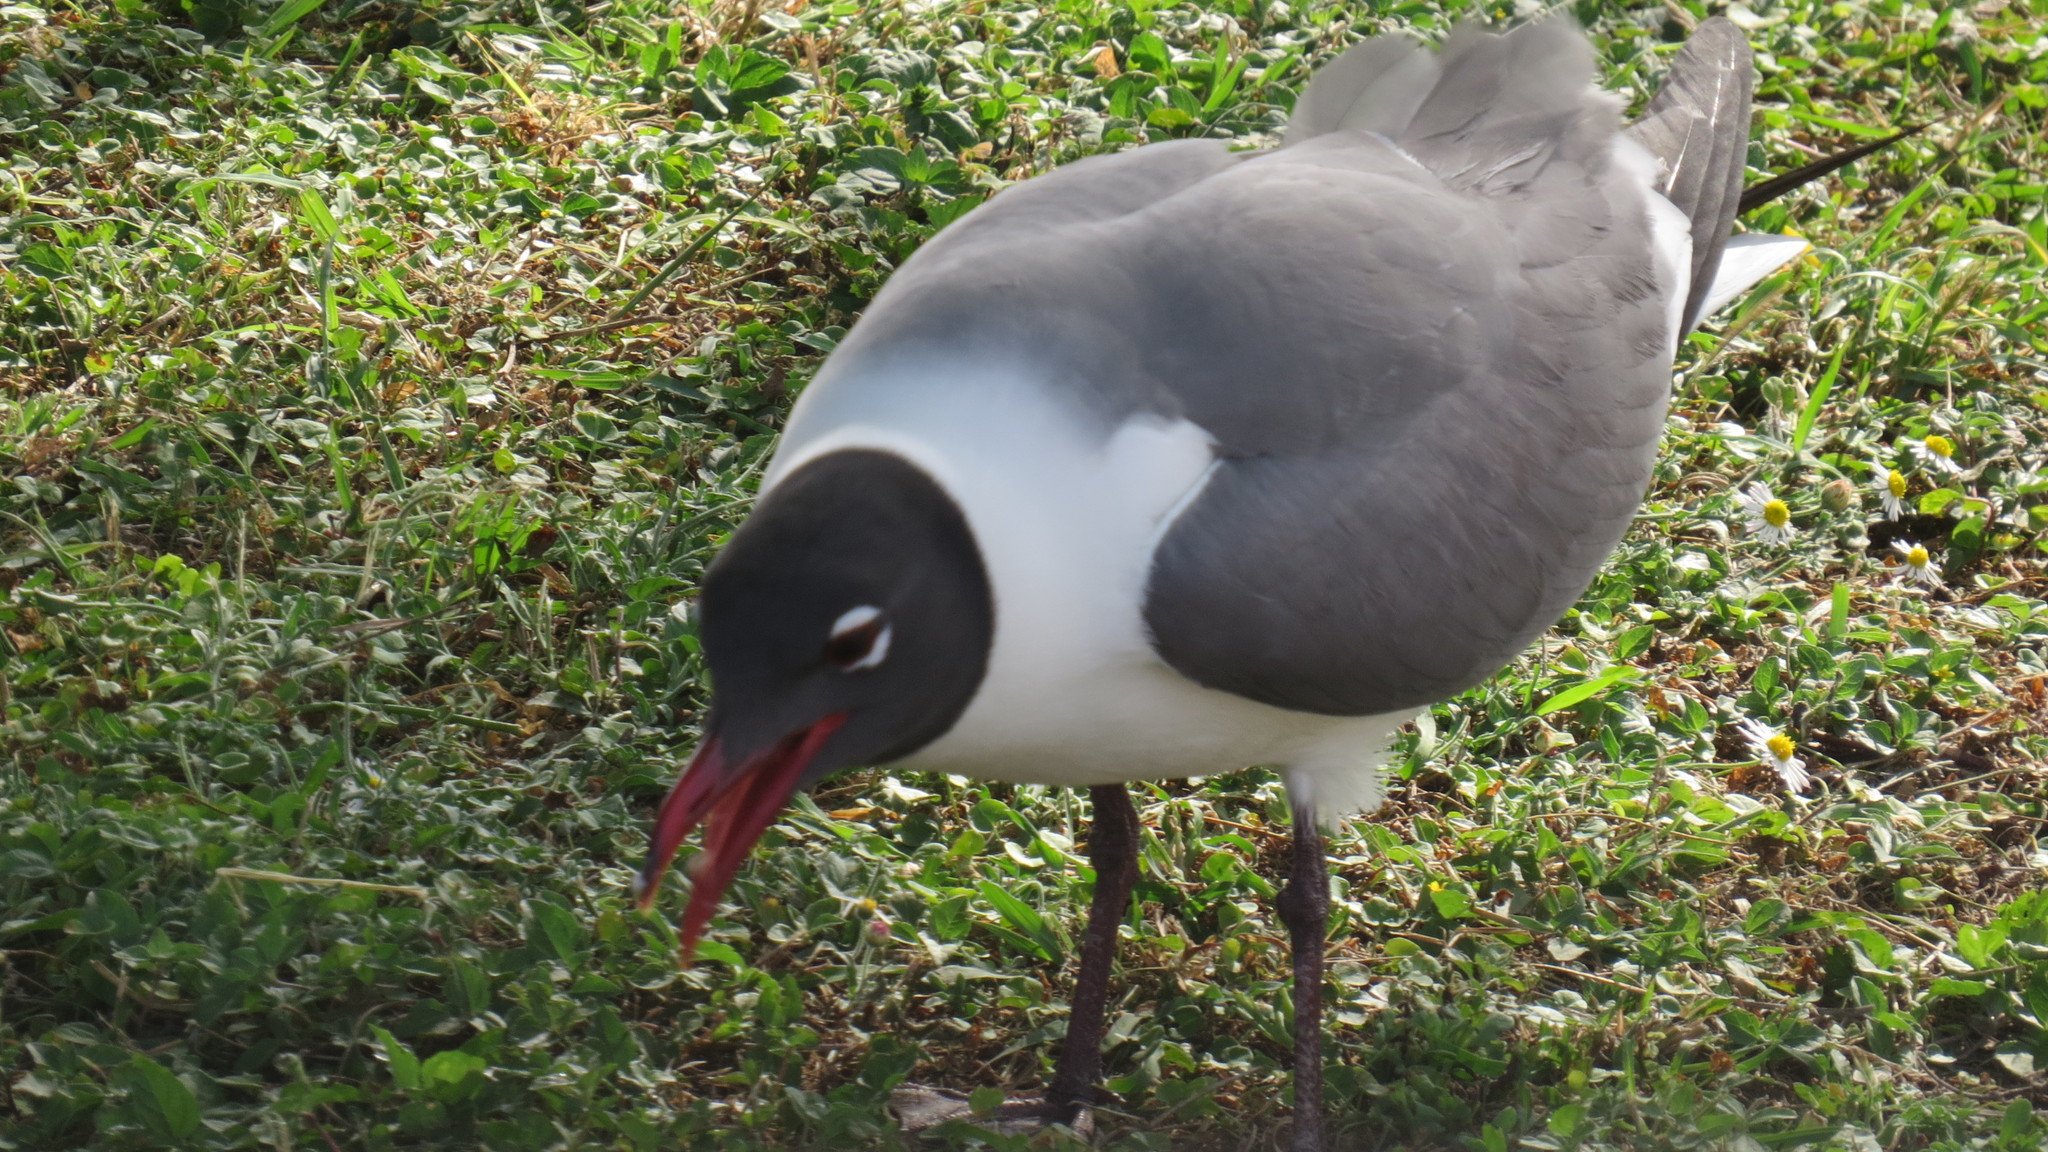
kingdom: Animalia
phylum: Chordata
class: Aves
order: Charadriiformes
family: Laridae
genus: Leucophaeus
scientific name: Leucophaeus atricilla
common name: Laughing gull
